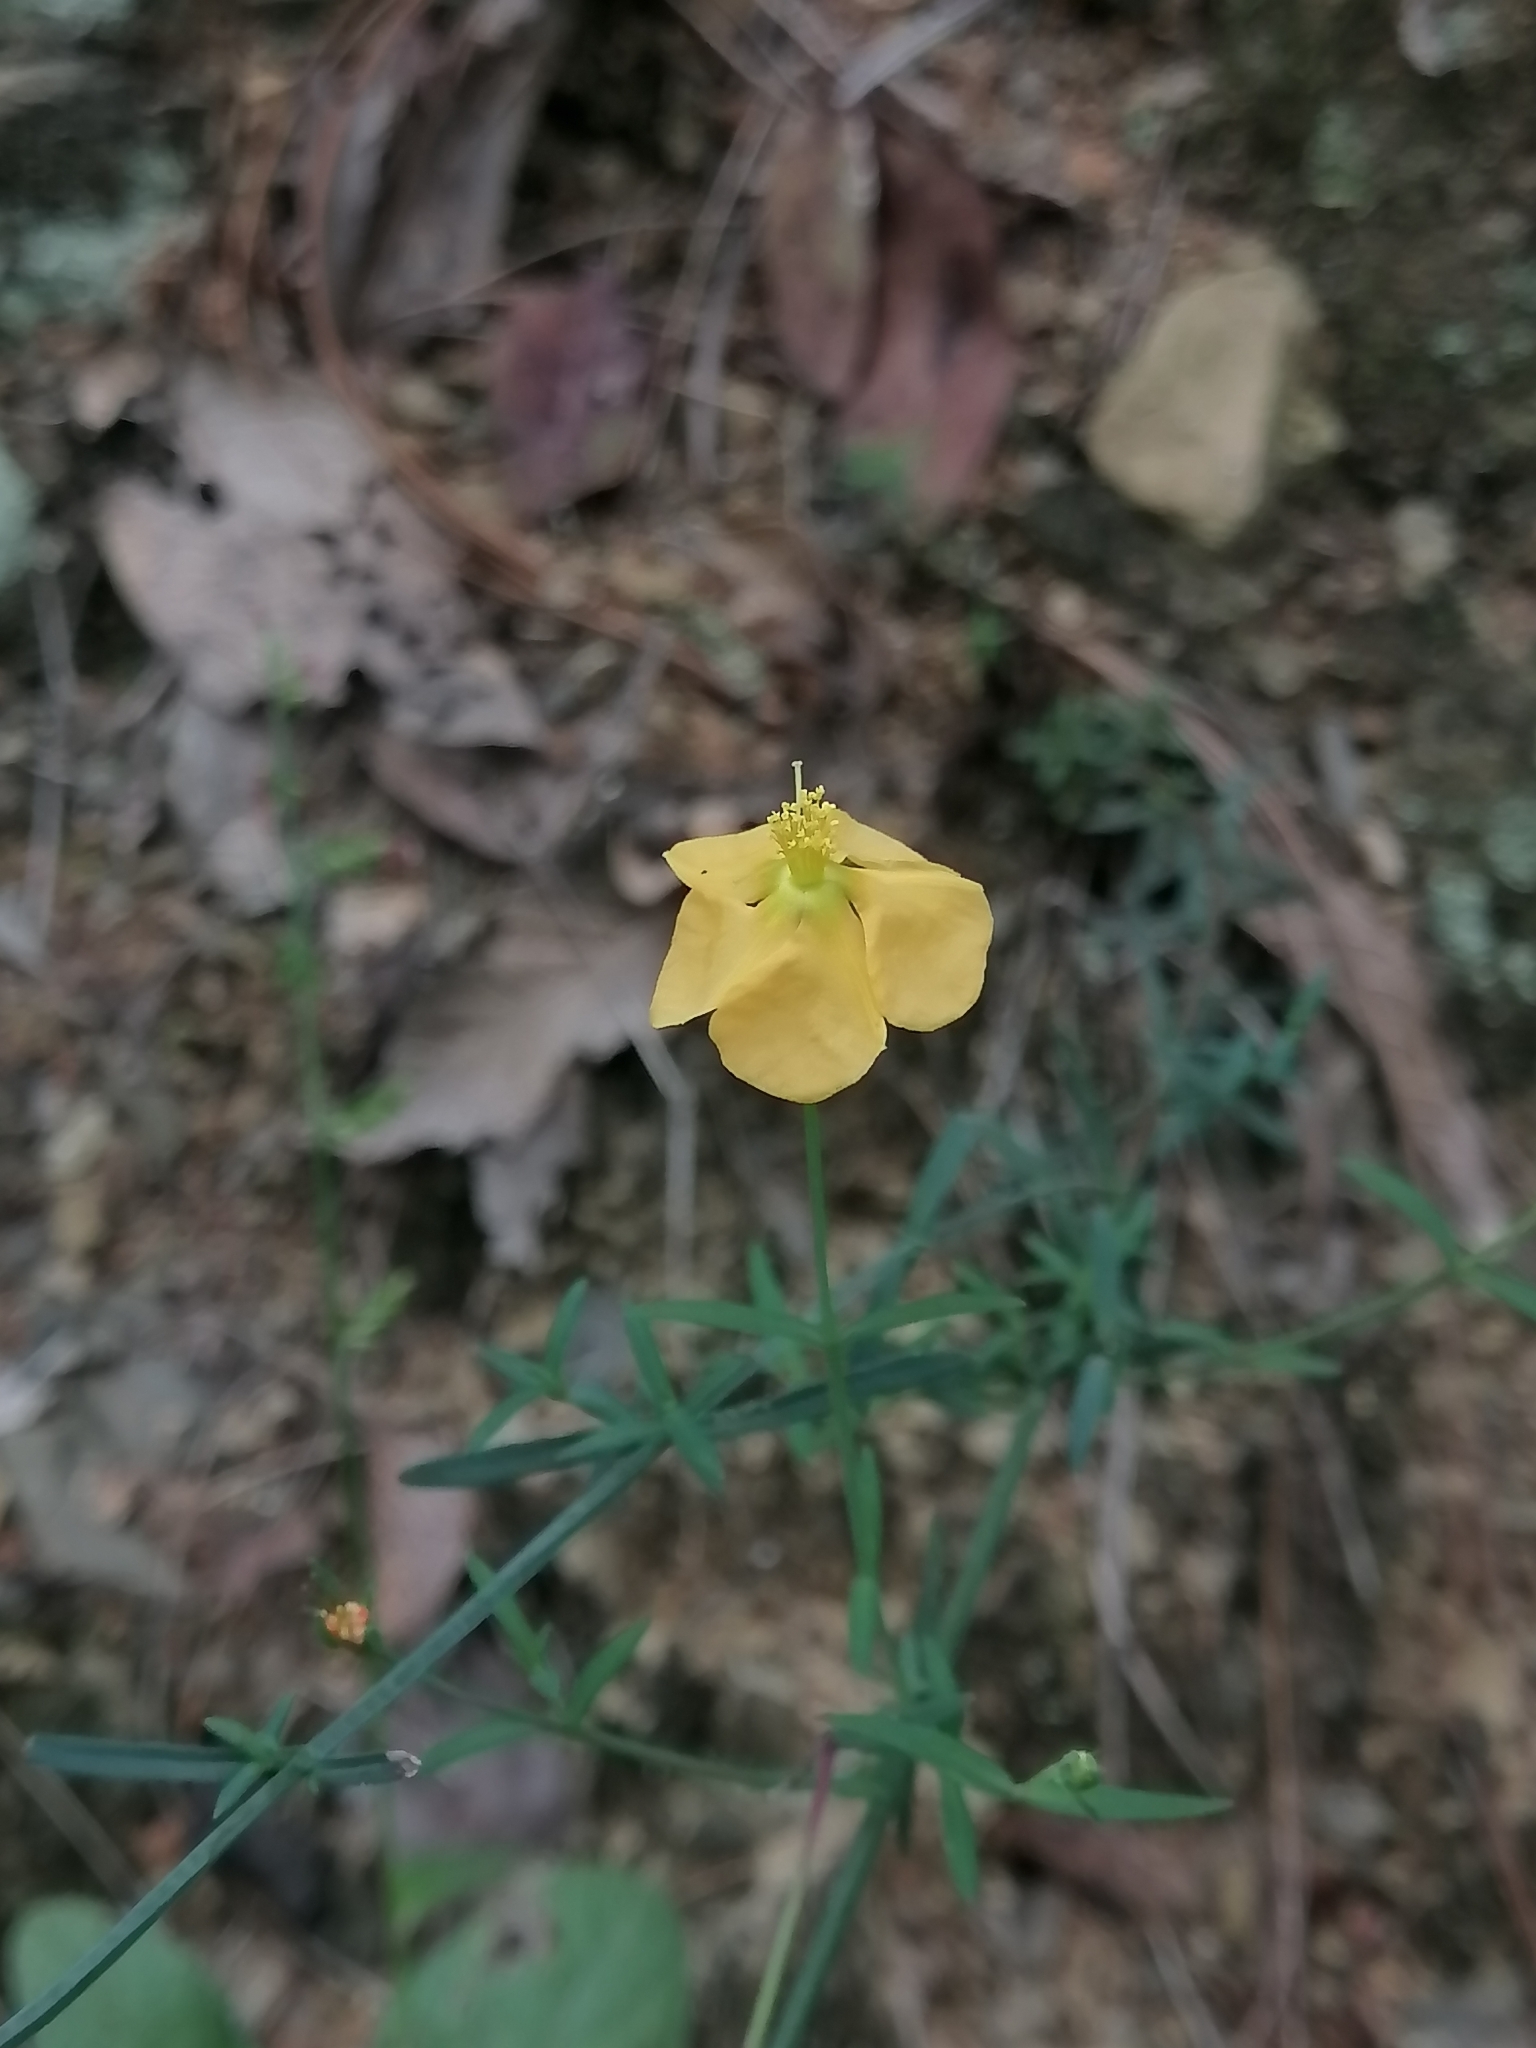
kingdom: Plantae
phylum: Tracheophyta
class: Magnoliopsida
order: Malpighiales
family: Hypericaceae
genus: Hypericum
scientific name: Hypericum silenoides
